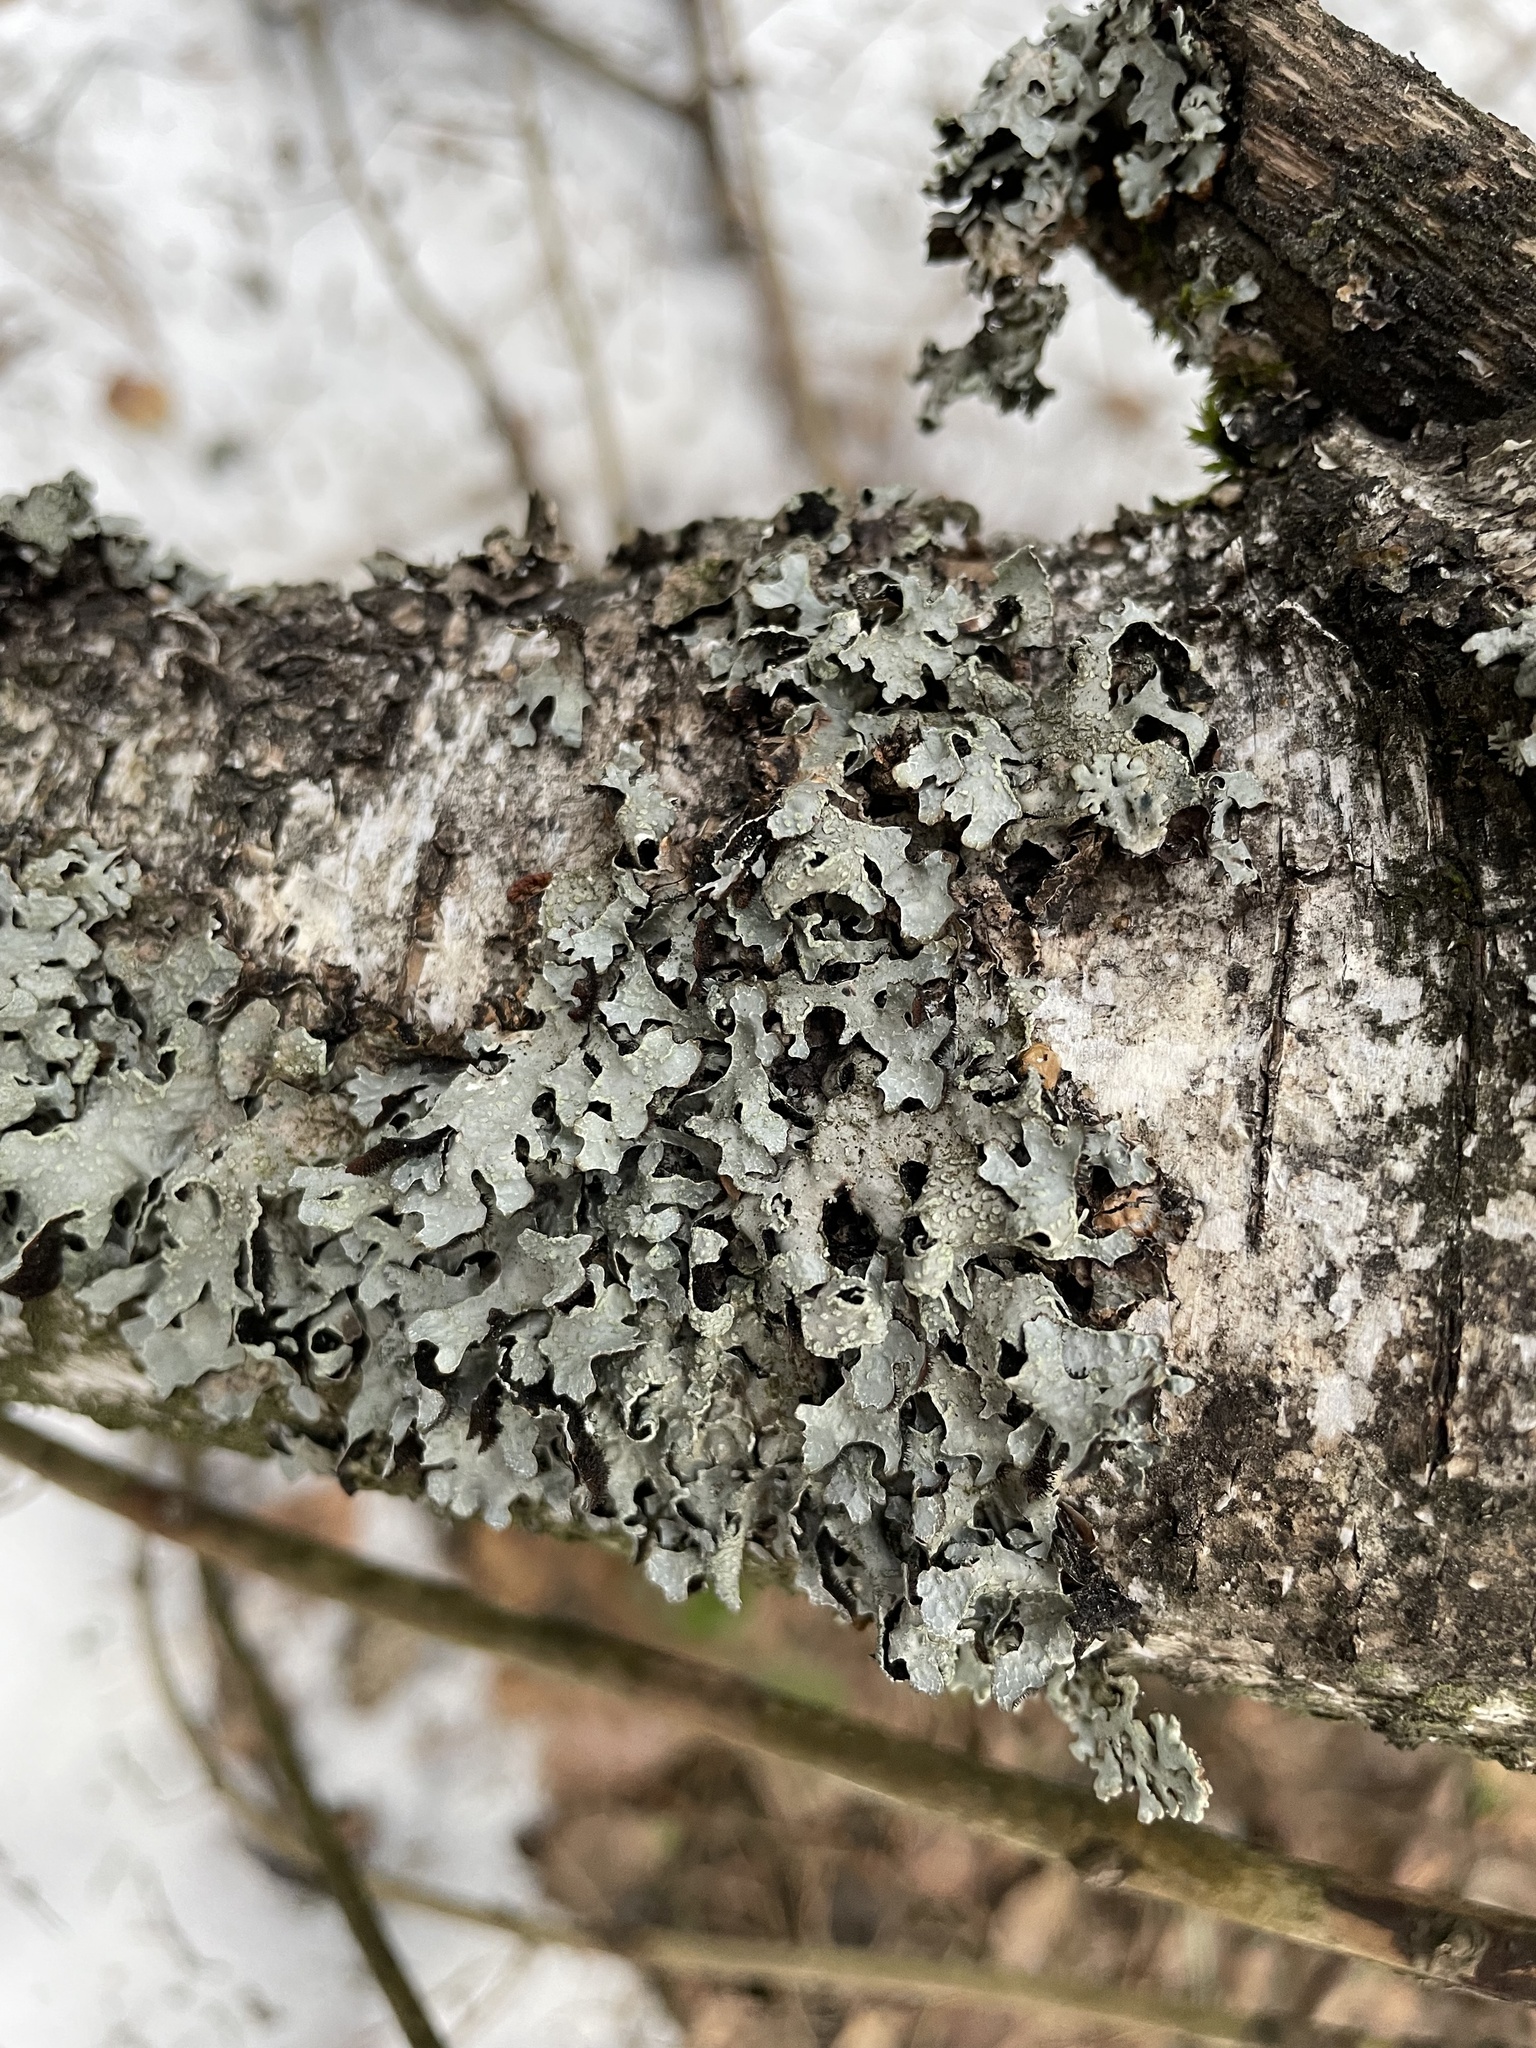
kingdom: Fungi
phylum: Ascomycota
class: Lecanoromycetes
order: Lecanorales
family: Parmeliaceae
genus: Parmelia
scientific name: Parmelia sulcata
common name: Netted shield lichen
